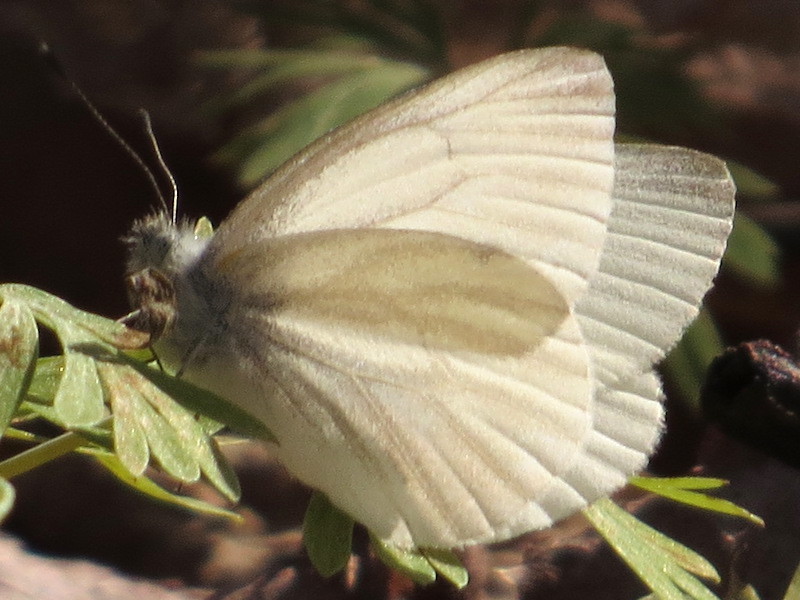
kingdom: Animalia
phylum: Arthropoda
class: Insecta
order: Lepidoptera
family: Pieridae
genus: Pieris
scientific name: Pieris virginiensis
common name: West virginia white
